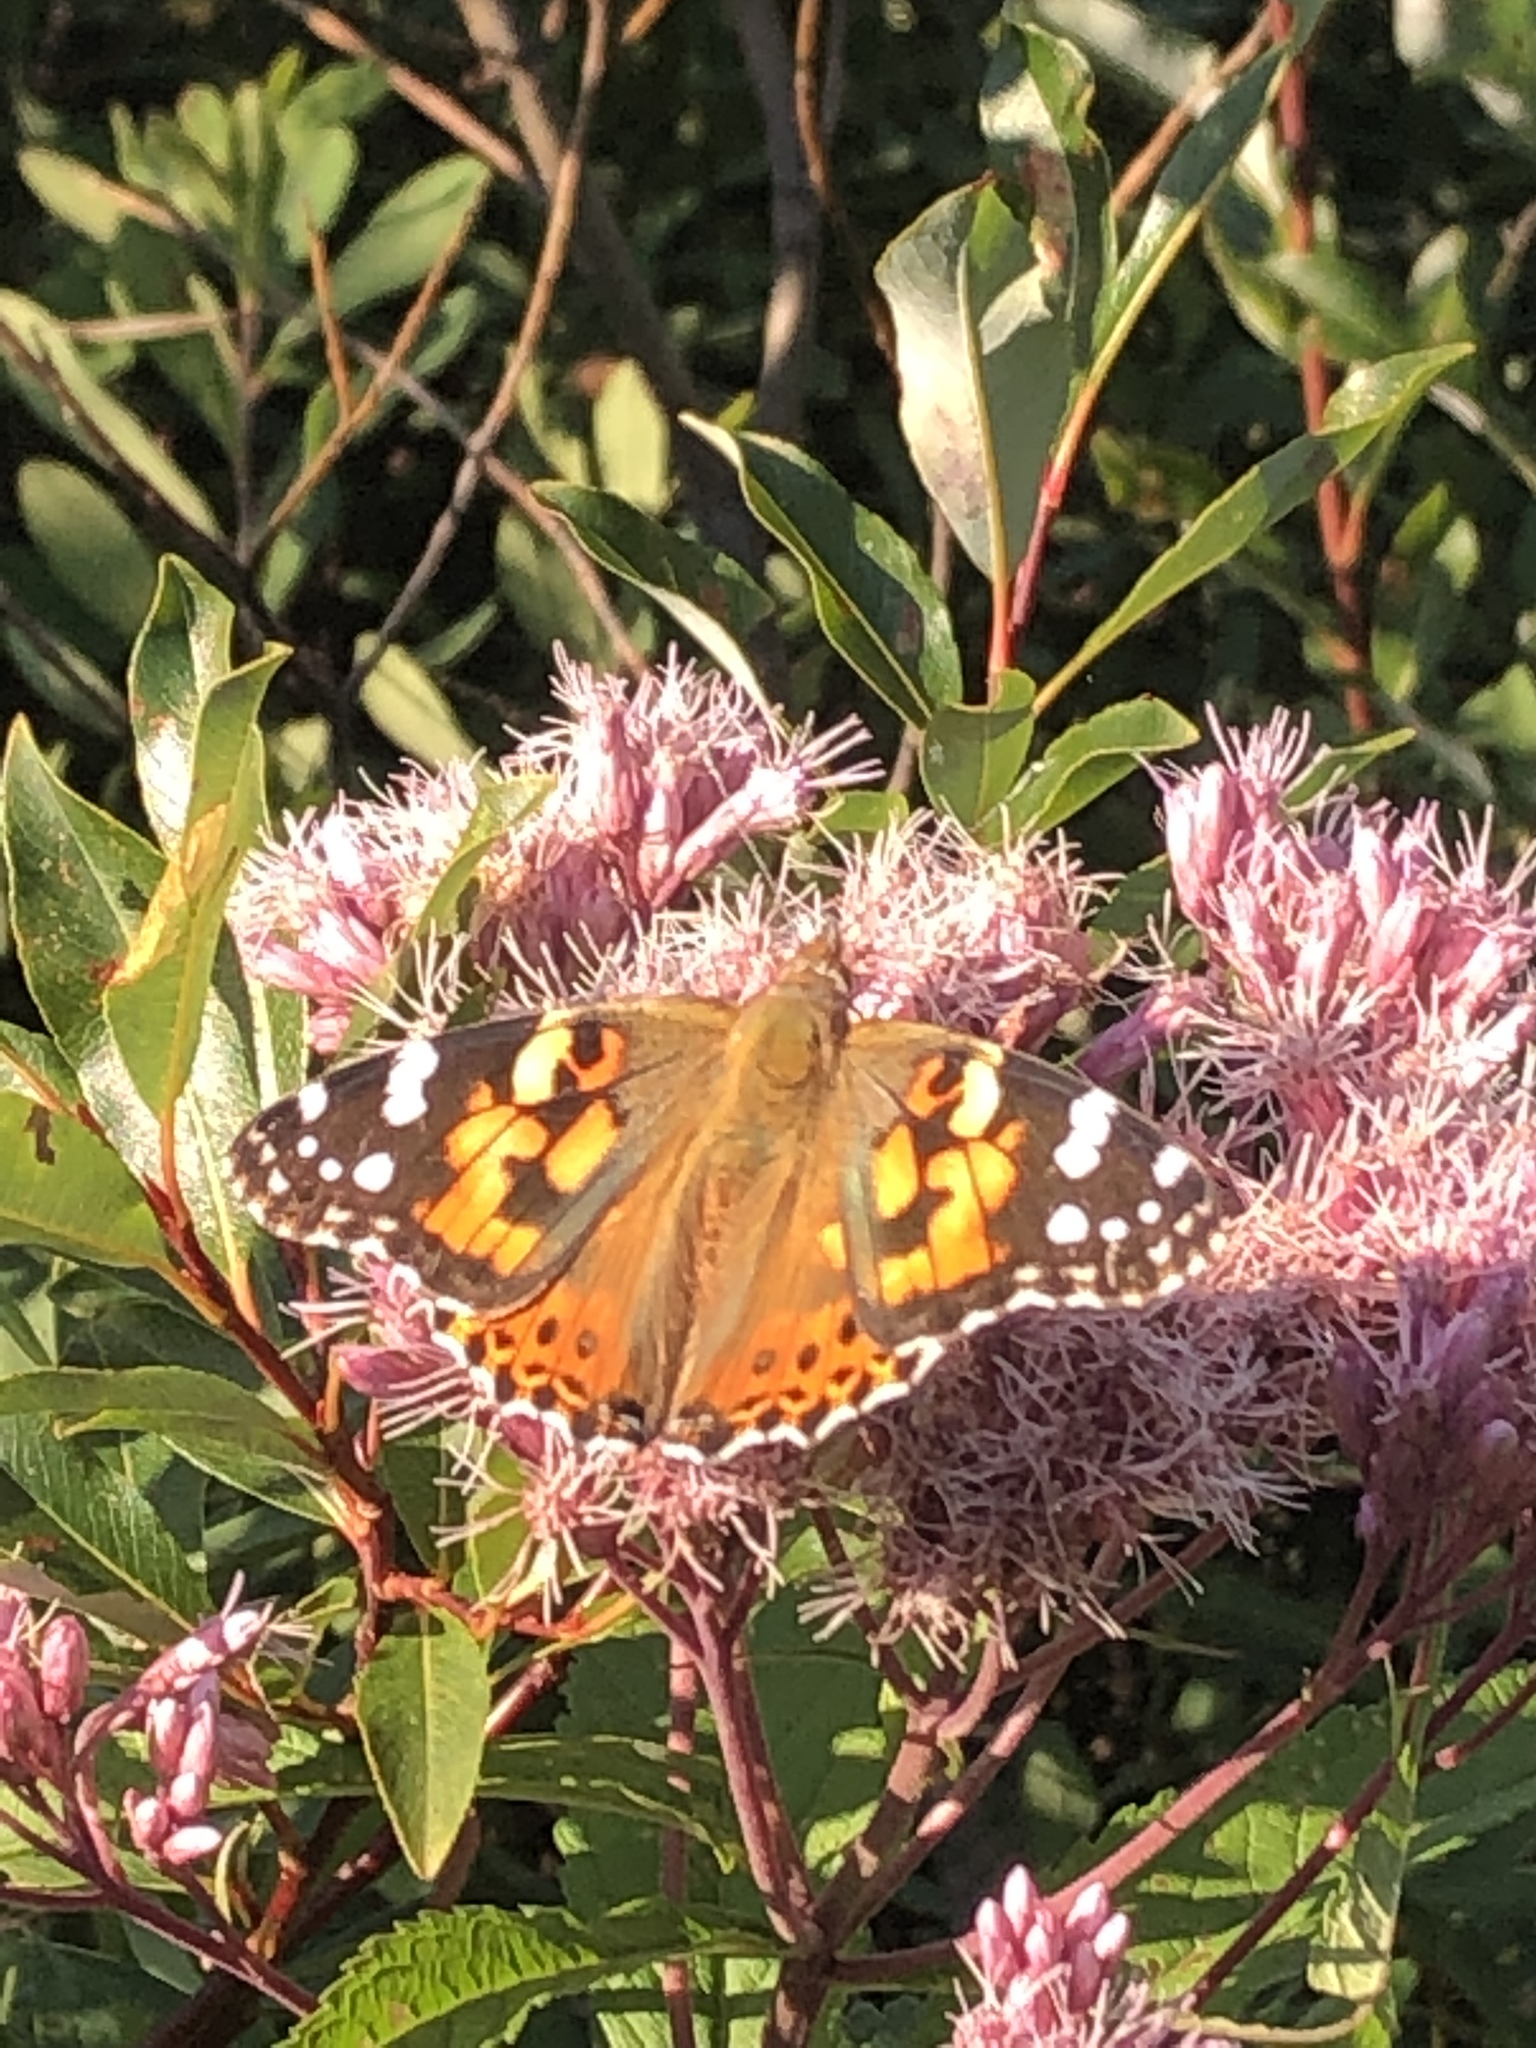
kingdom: Animalia
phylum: Arthropoda
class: Insecta
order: Lepidoptera
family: Nymphalidae
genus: Vanessa
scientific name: Vanessa cardui
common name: Painted lady
